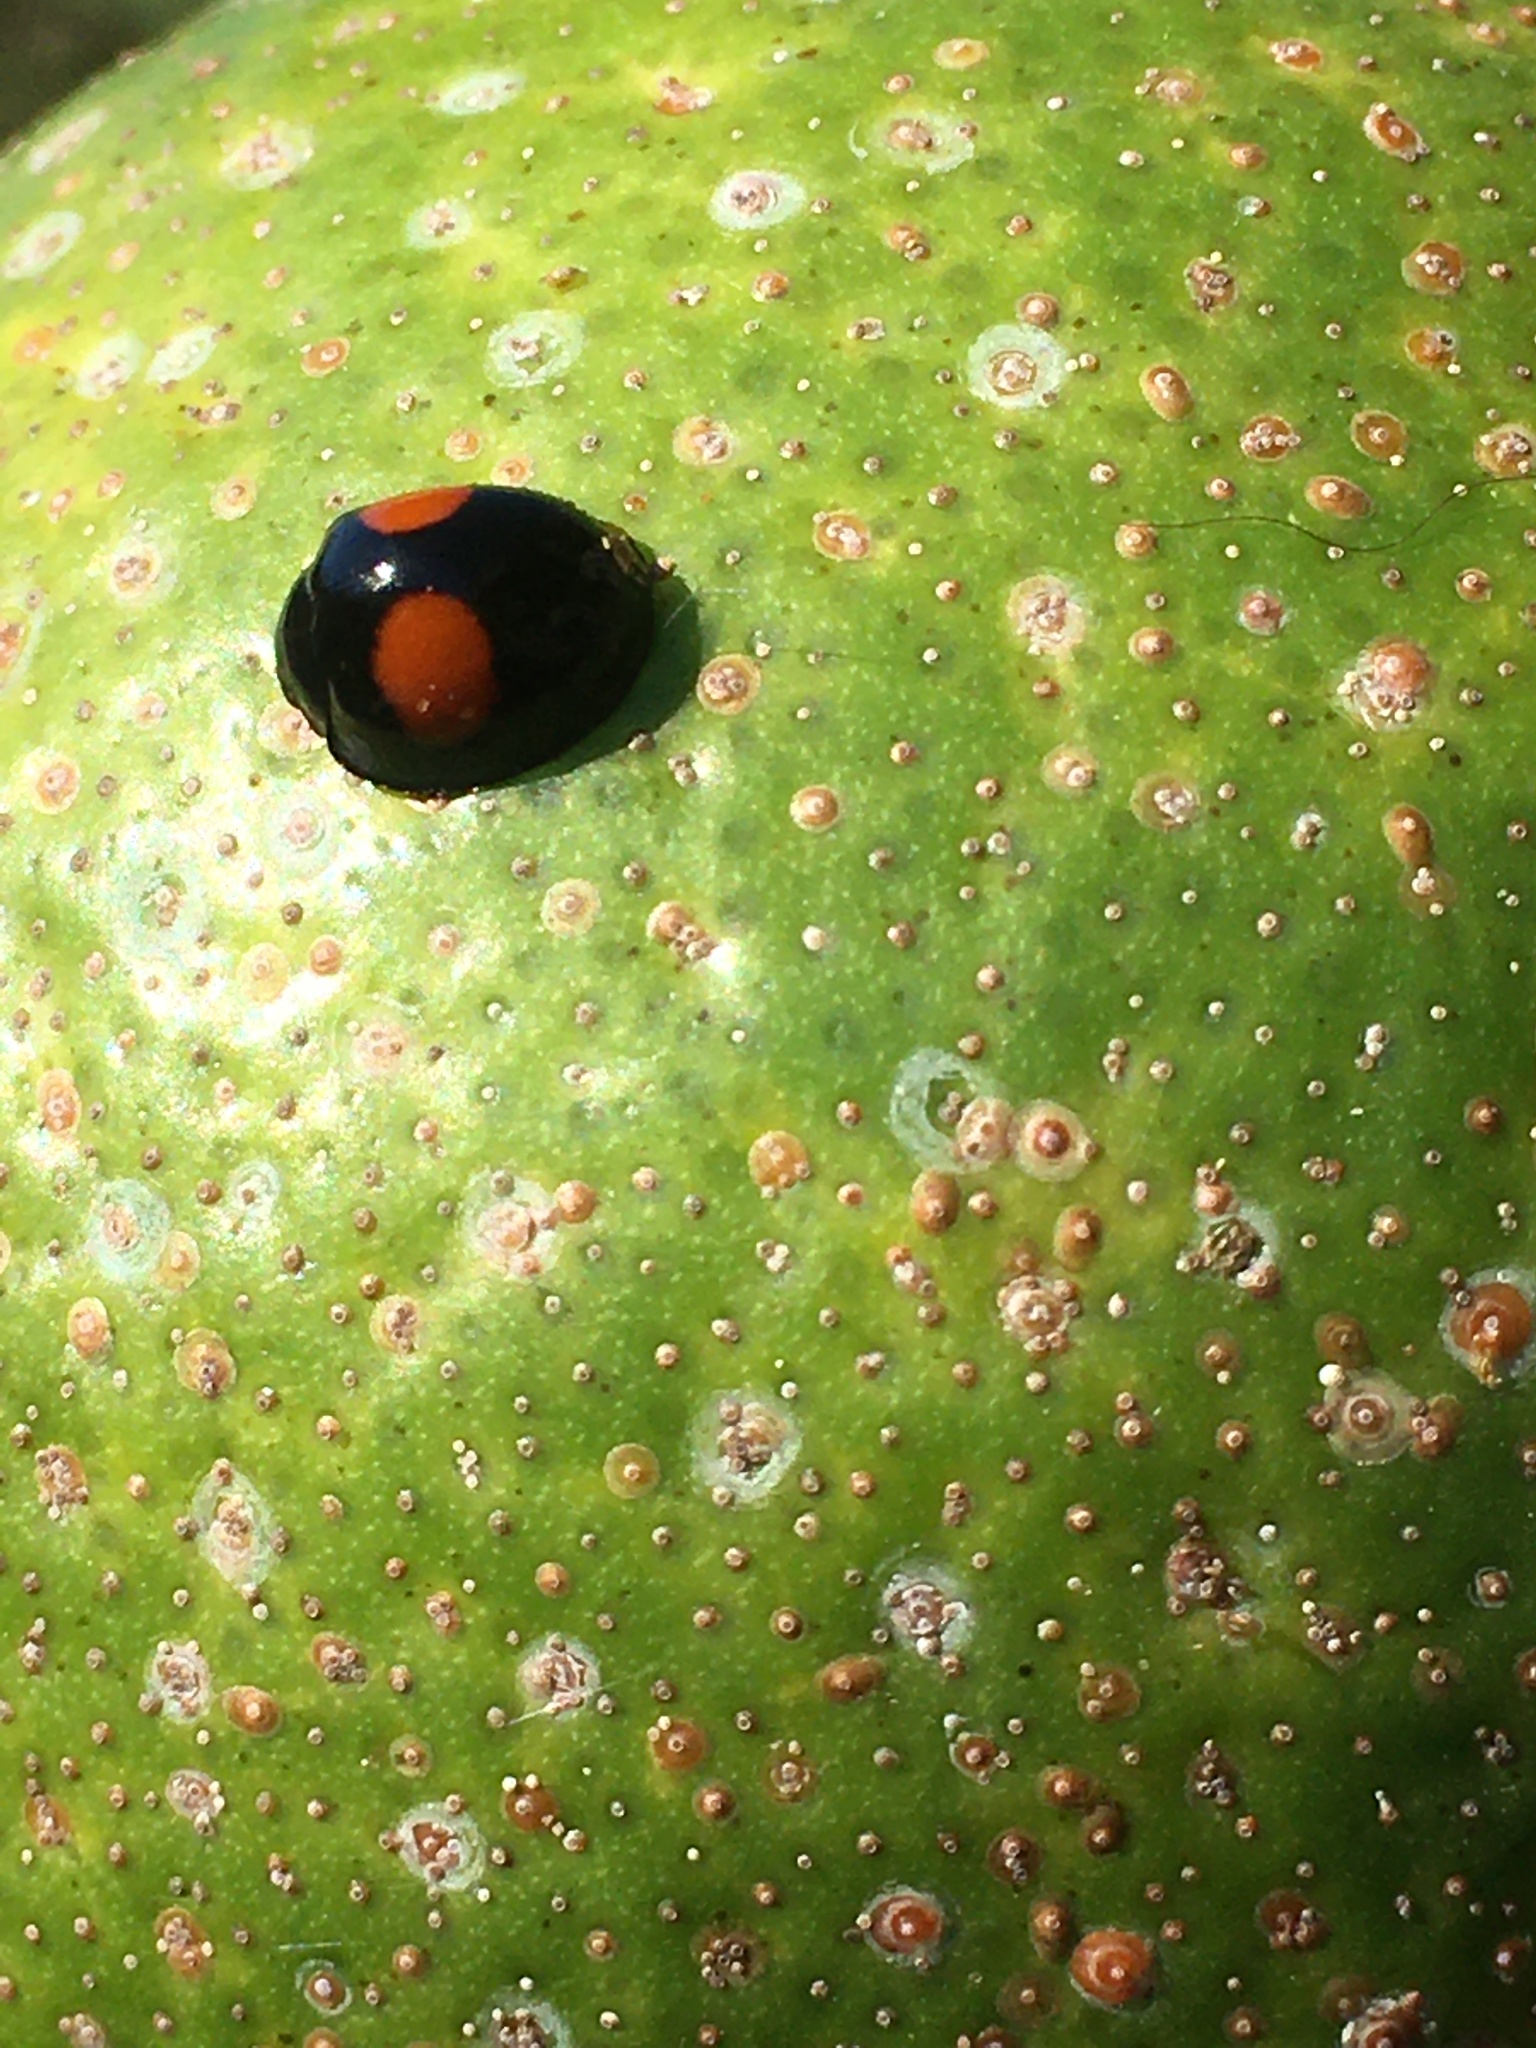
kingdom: Animalia
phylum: Arthropoda
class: Insecta
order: Coleoptera
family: Coccinellidae
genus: Chilocorus
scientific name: Chilocorus cacti
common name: Cactus lady beetle
